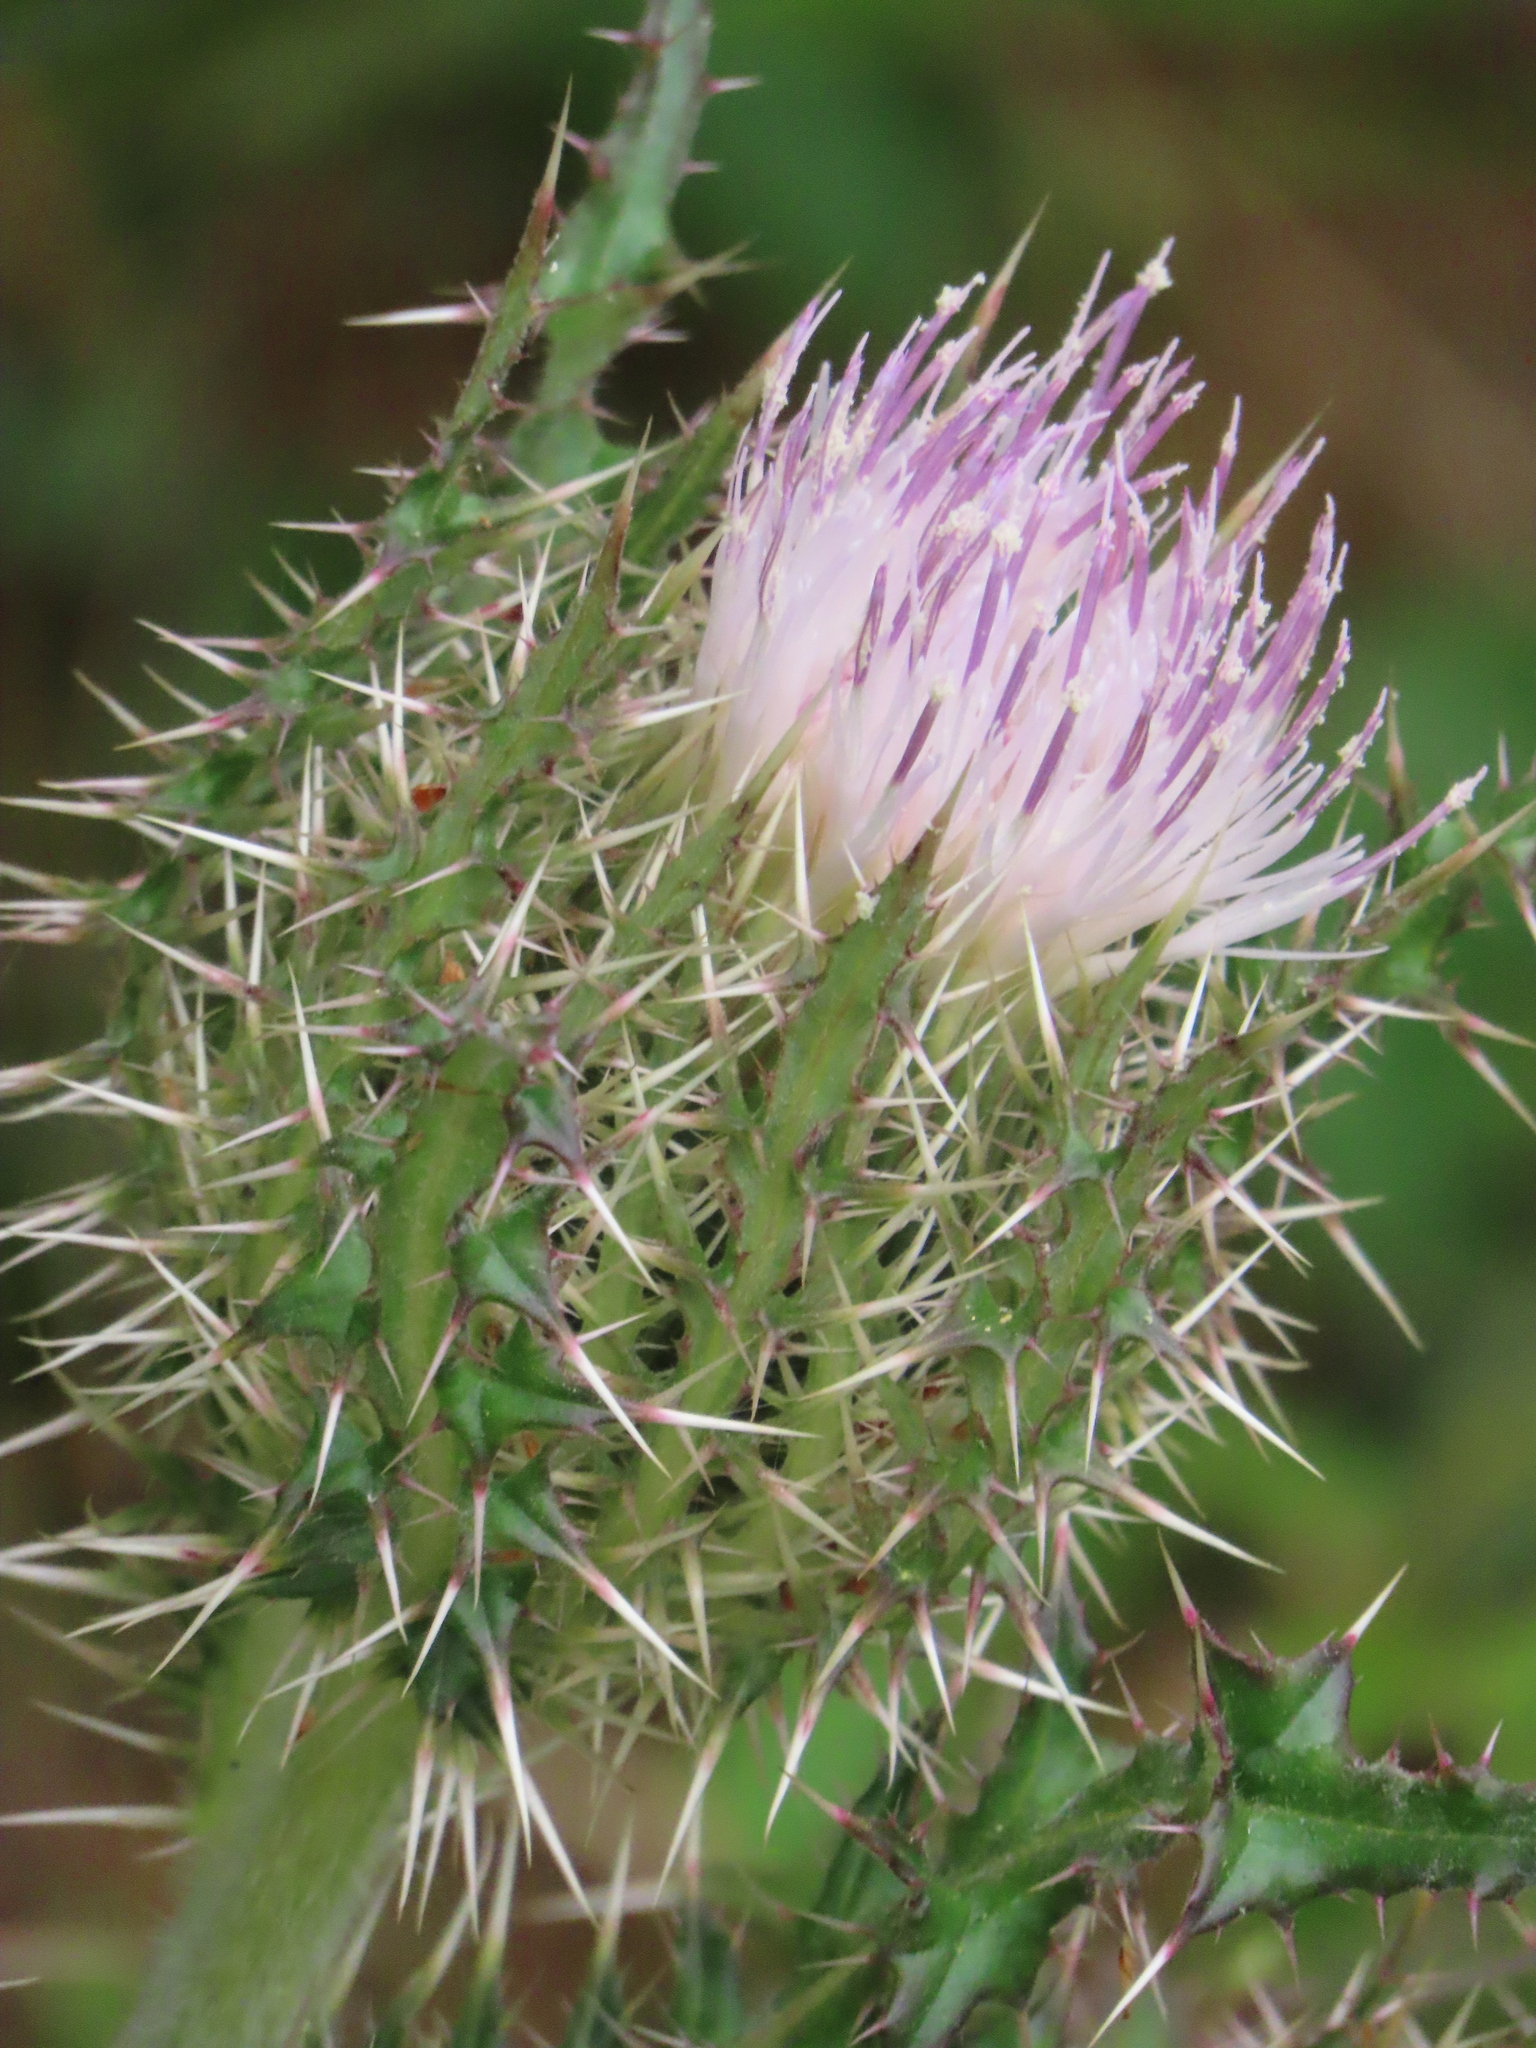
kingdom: Plantae
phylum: Tracheophyta
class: Magnoliopsida
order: Asterales
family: Asteraceae
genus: Cirsium
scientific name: Cirsium horridulum
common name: Bristly thistle
